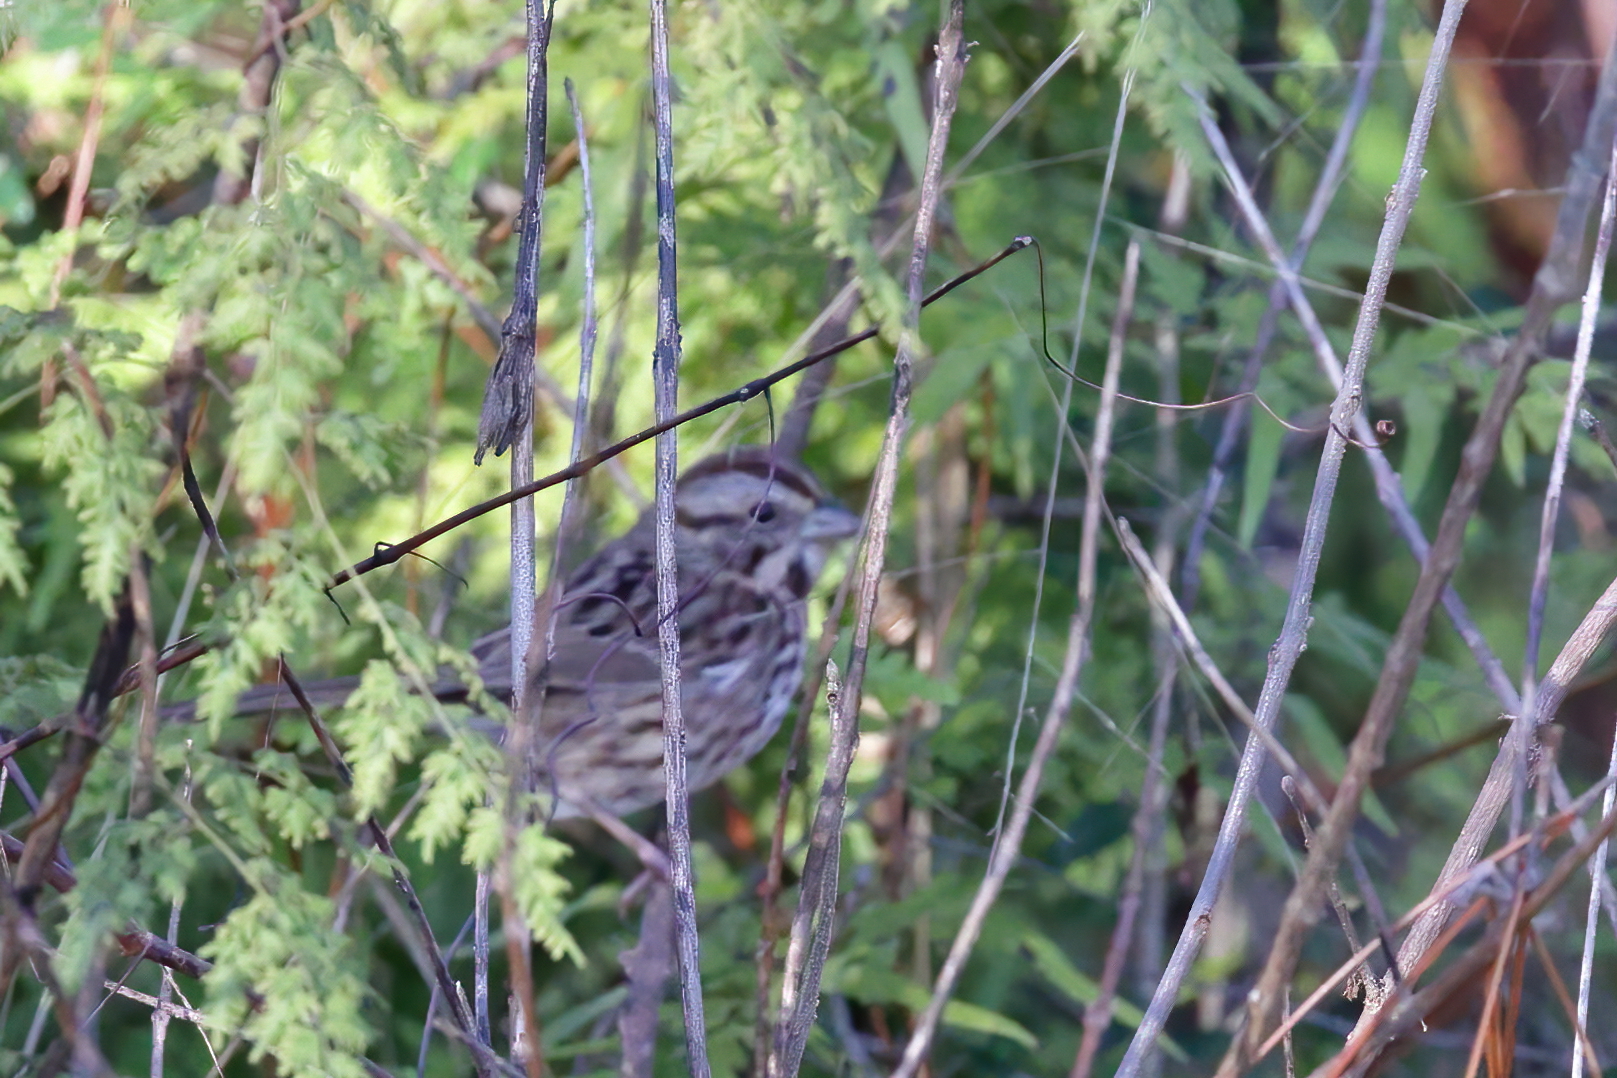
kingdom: Animalia
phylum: Chordata
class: Aves
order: Passeriformes
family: Passerellidae
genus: Melospiza
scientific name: Melospiza melodia
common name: Song sparrow
